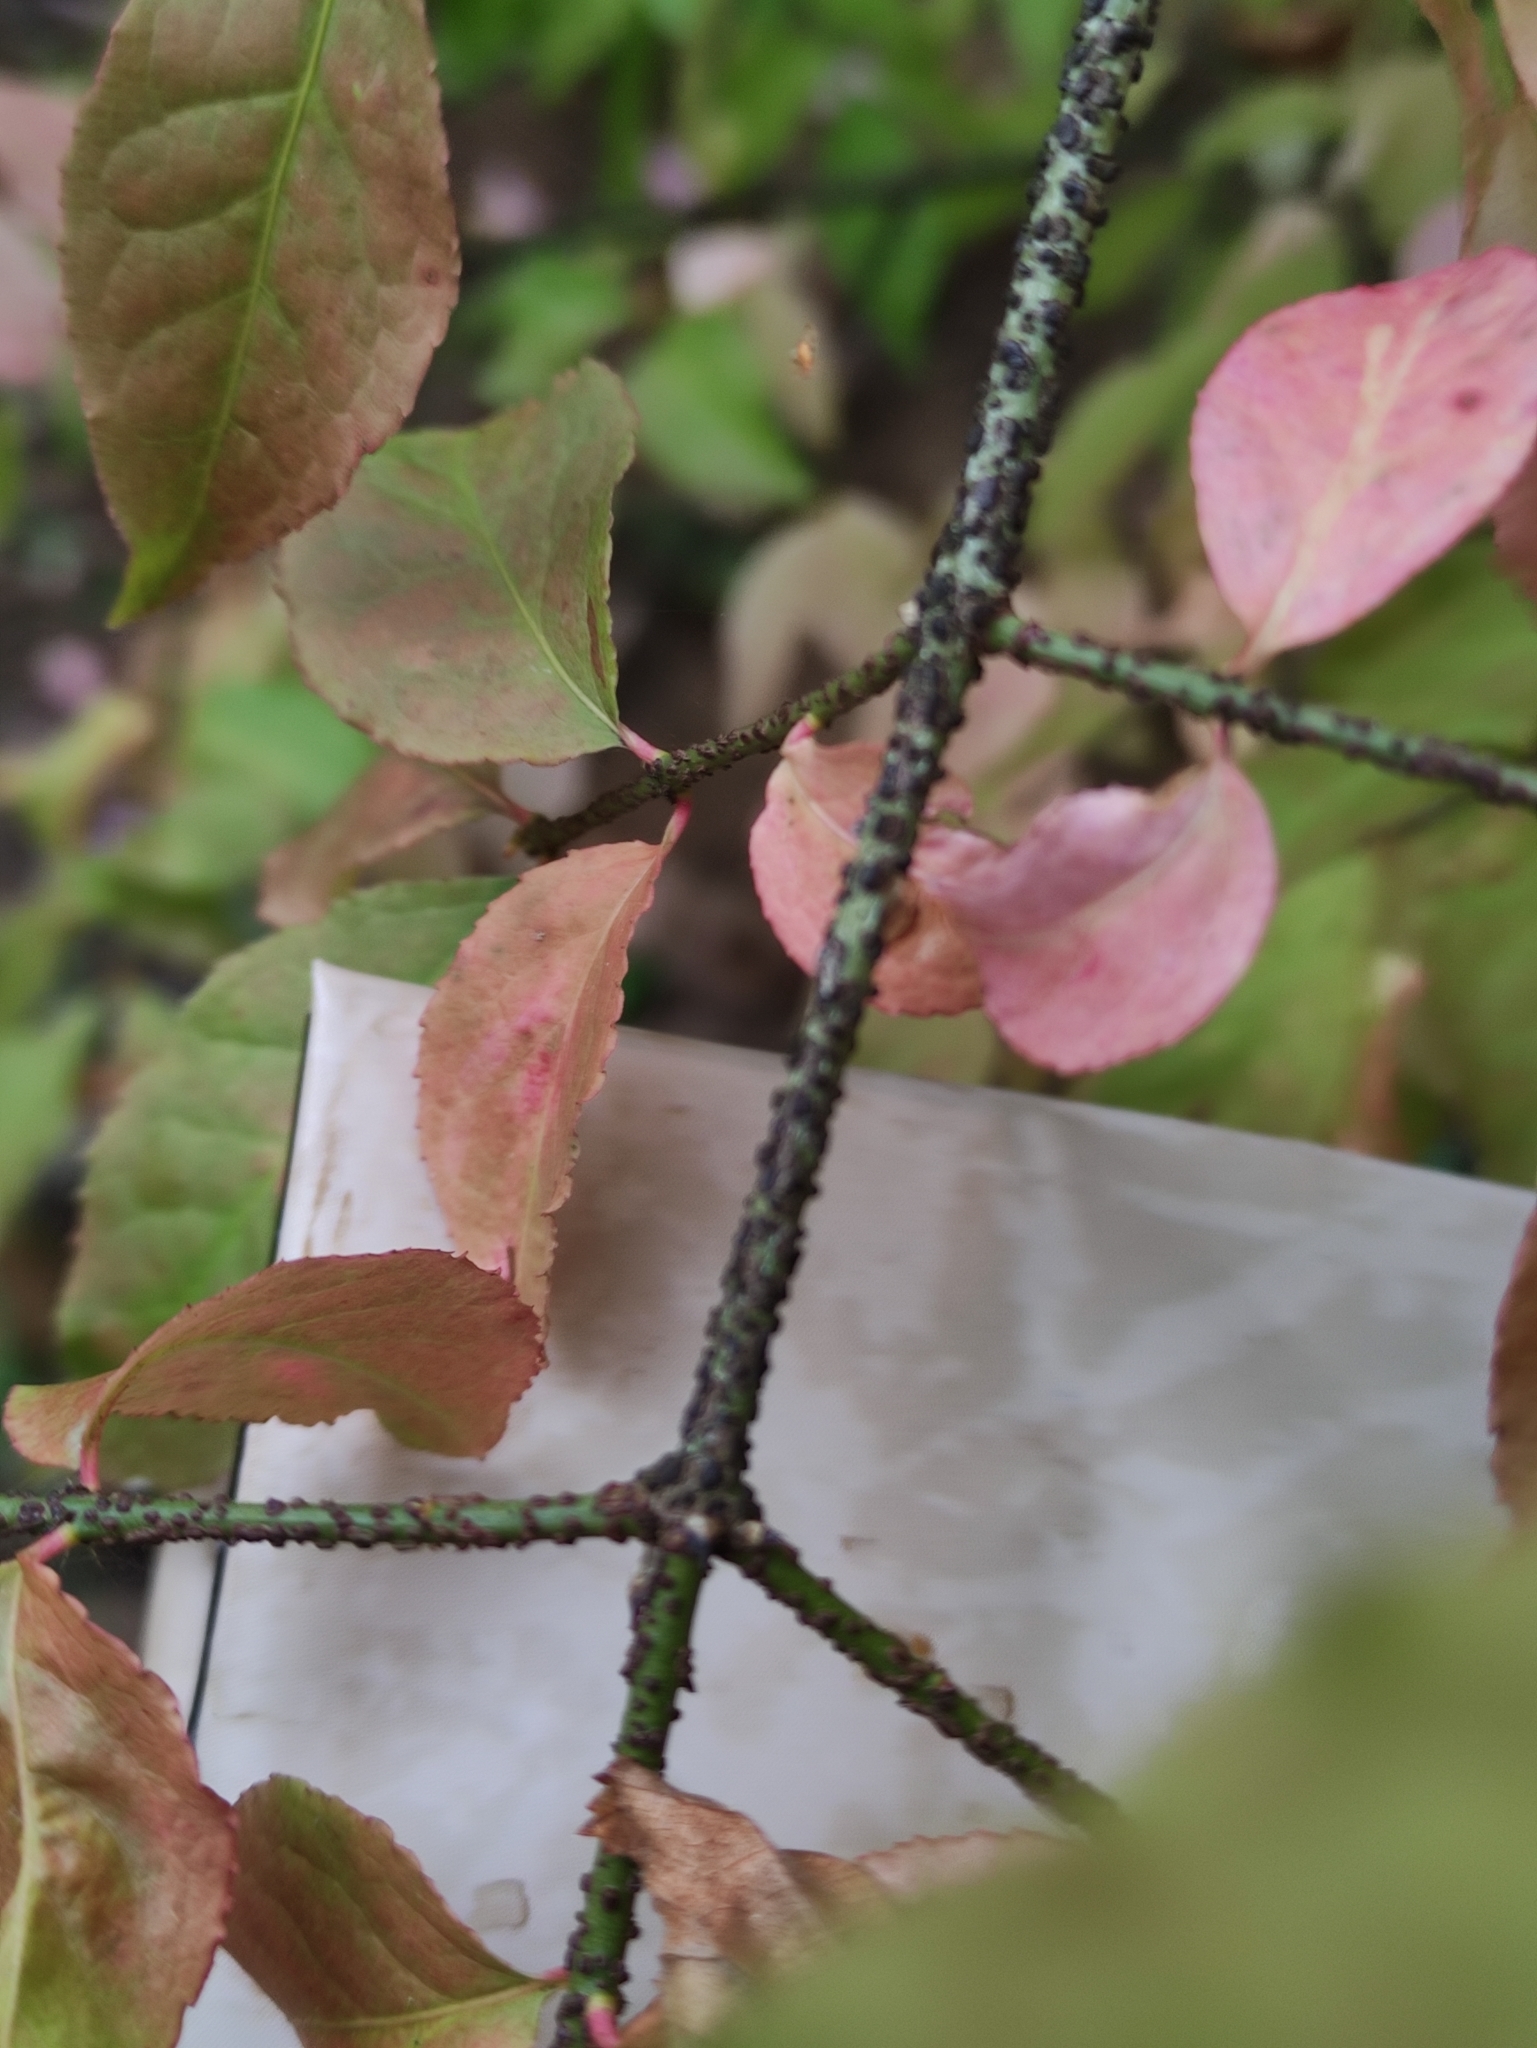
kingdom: Plantae
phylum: Tracheophyta
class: Magnoliopsida
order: Celastrales
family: Celastraceae
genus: Euonymus
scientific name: Euonymus verrucosus
